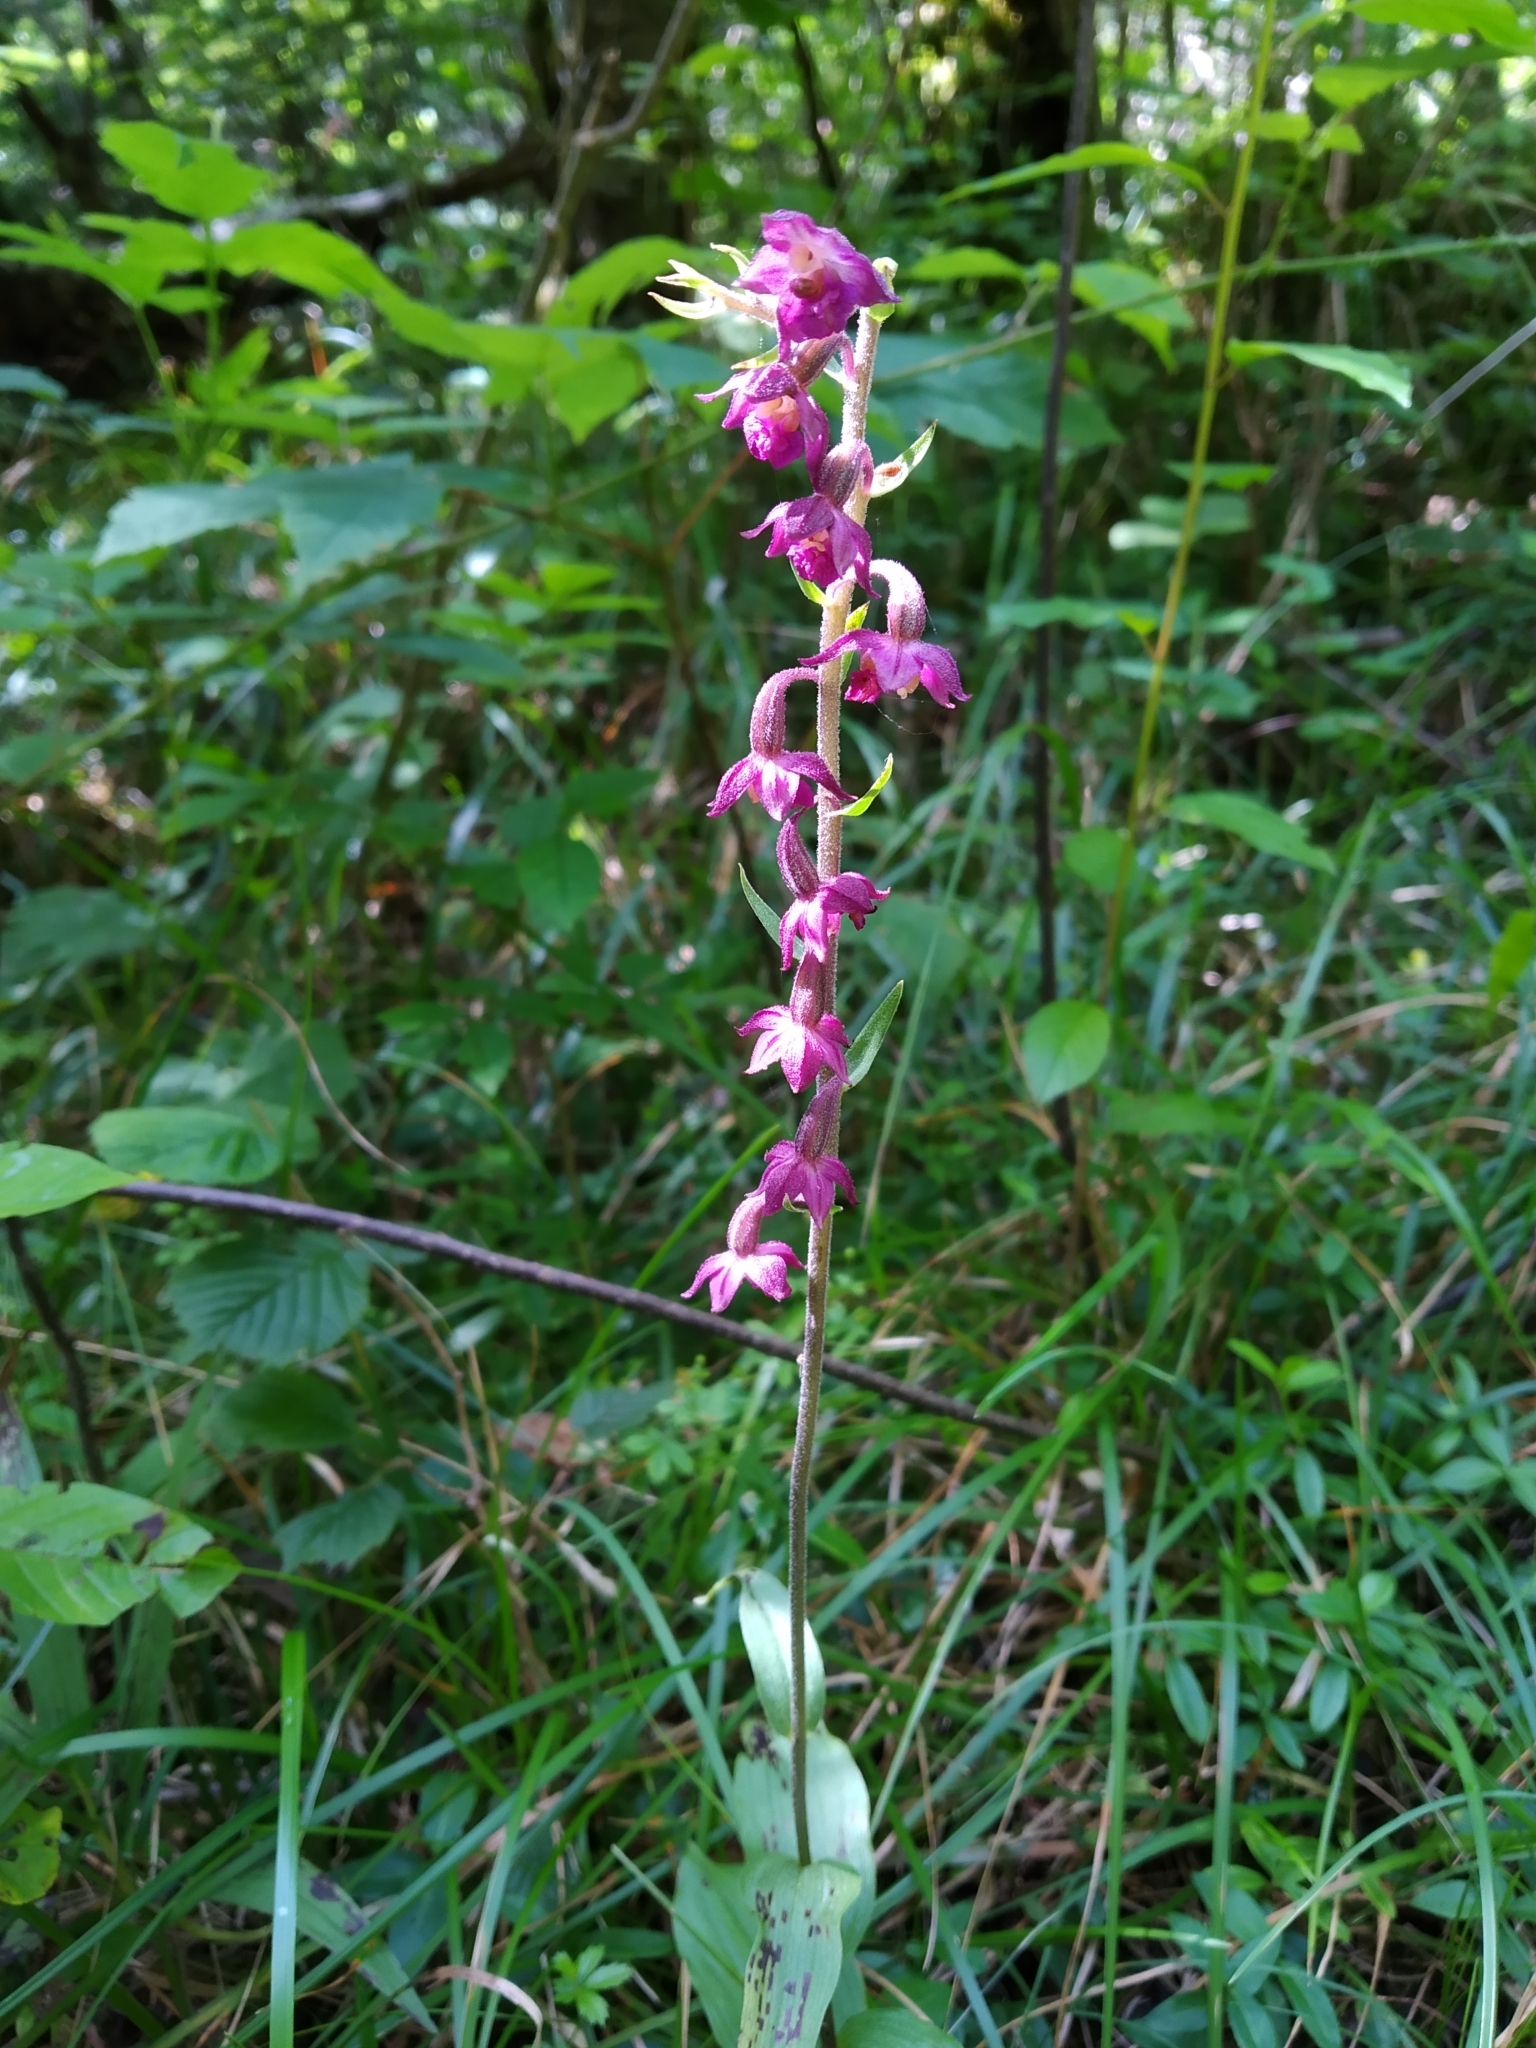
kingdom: Plantae
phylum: Tracheophyta
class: Liliopsida
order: Asparagales
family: Orchidaceae
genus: Epipactis
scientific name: Epipactis atrorubens
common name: Dark-red helleborine
